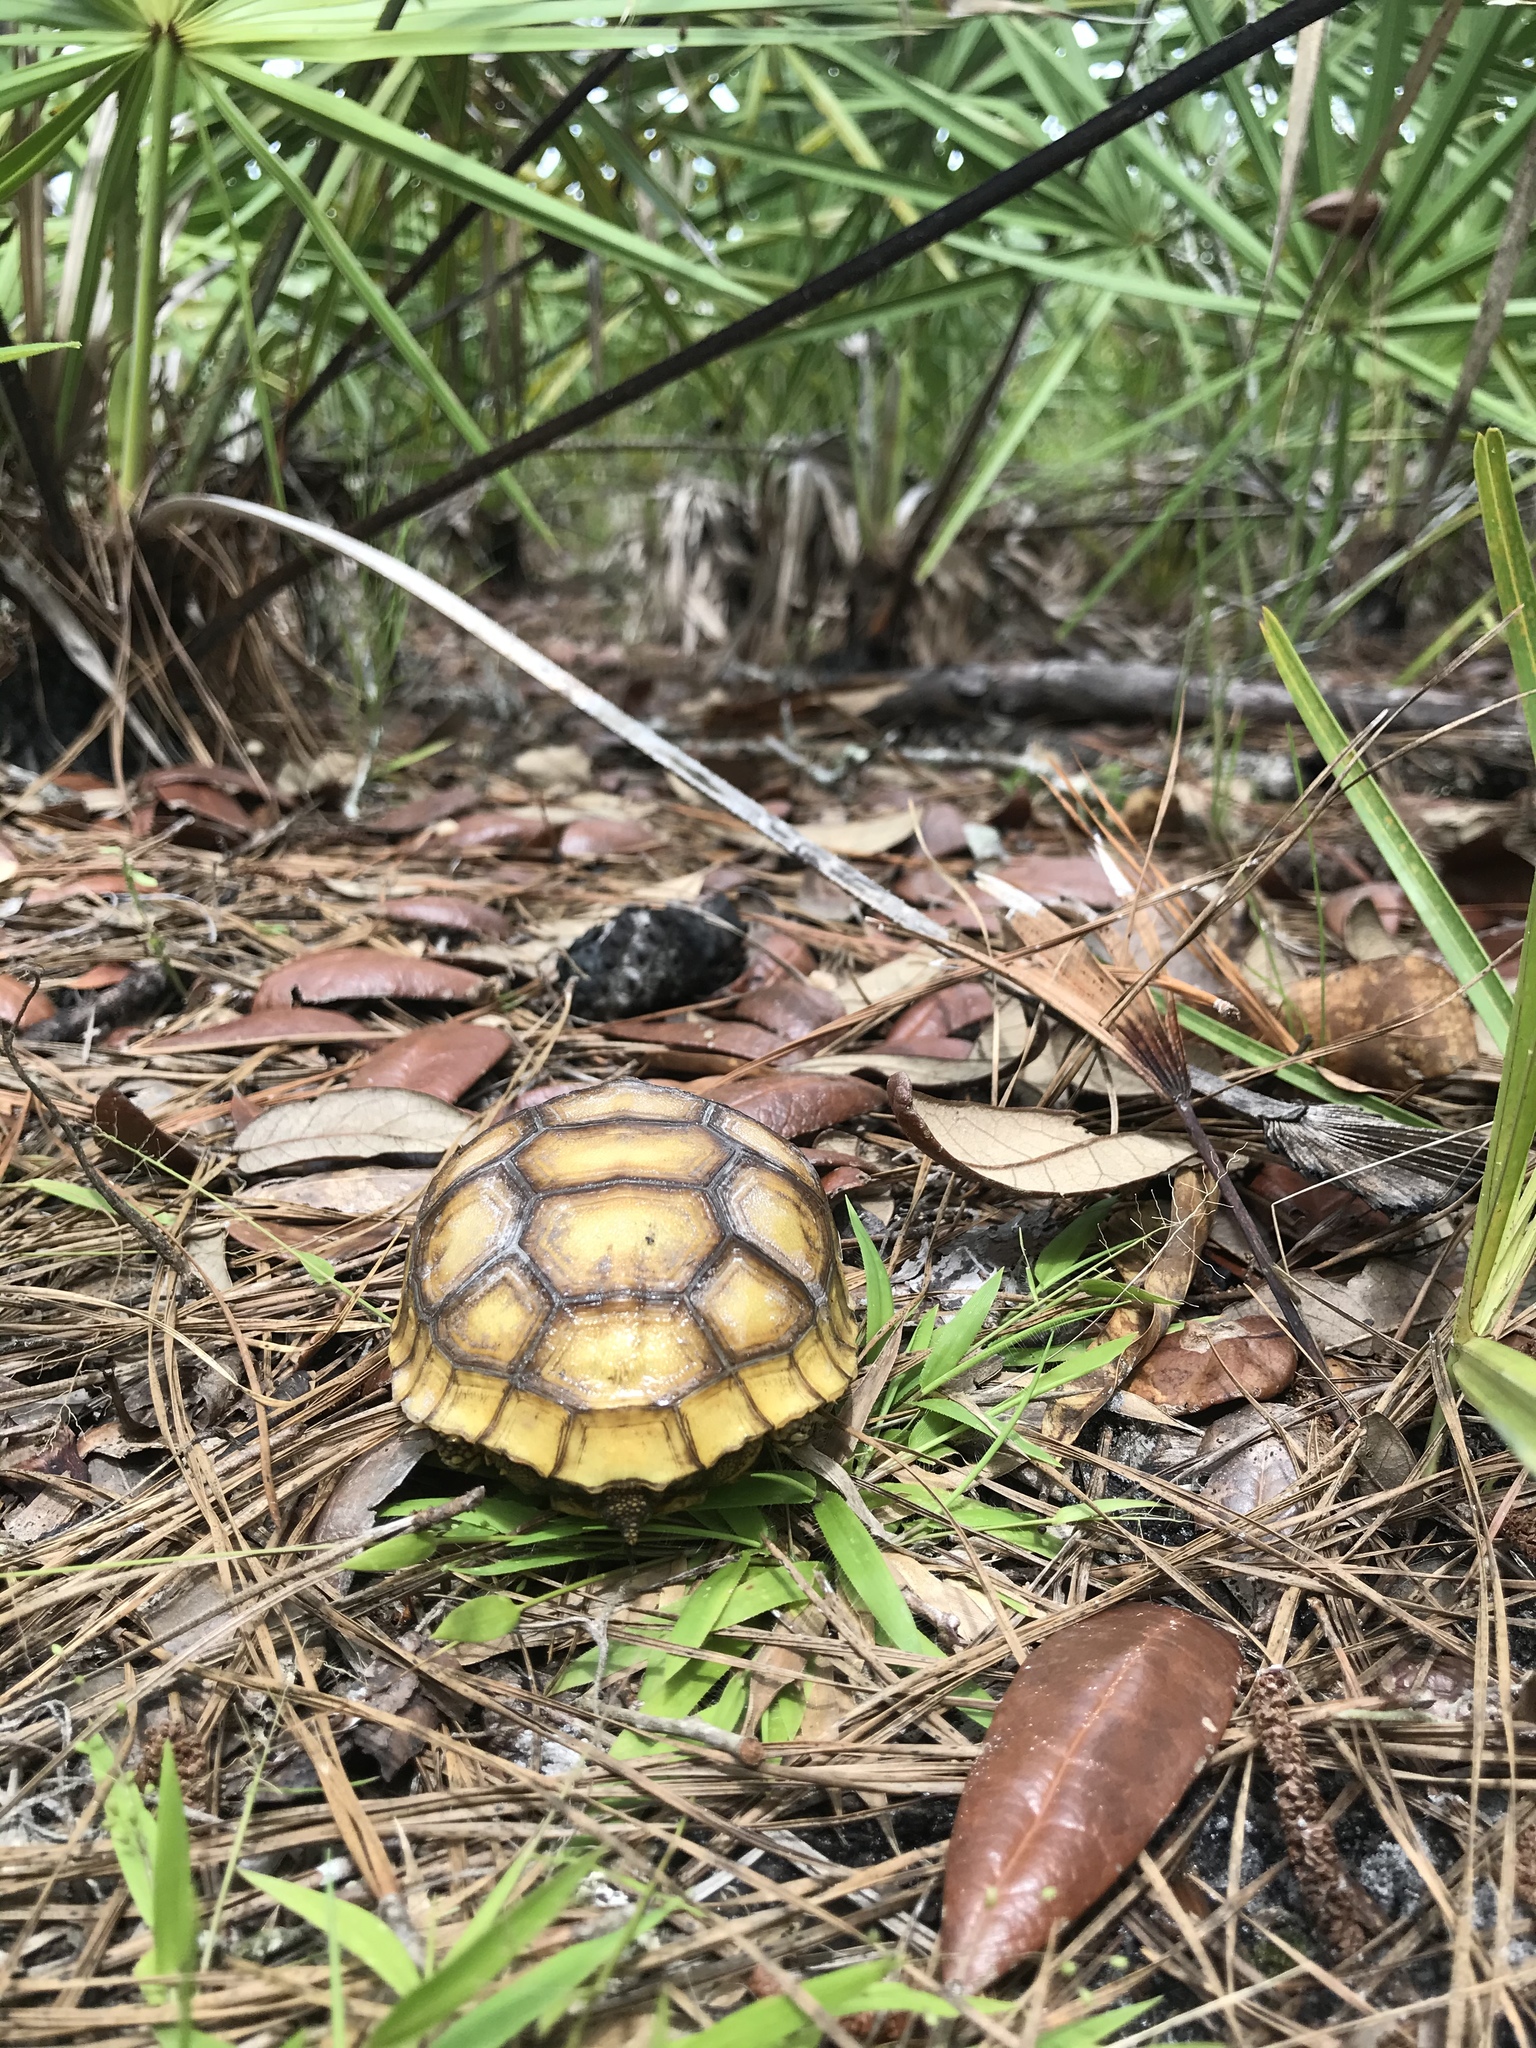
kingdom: Animalia
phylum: Chordata
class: Testudines
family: Testudinidae
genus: Gopherus
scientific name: Gopherus polyphemus
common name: Florida gopher tortoise
